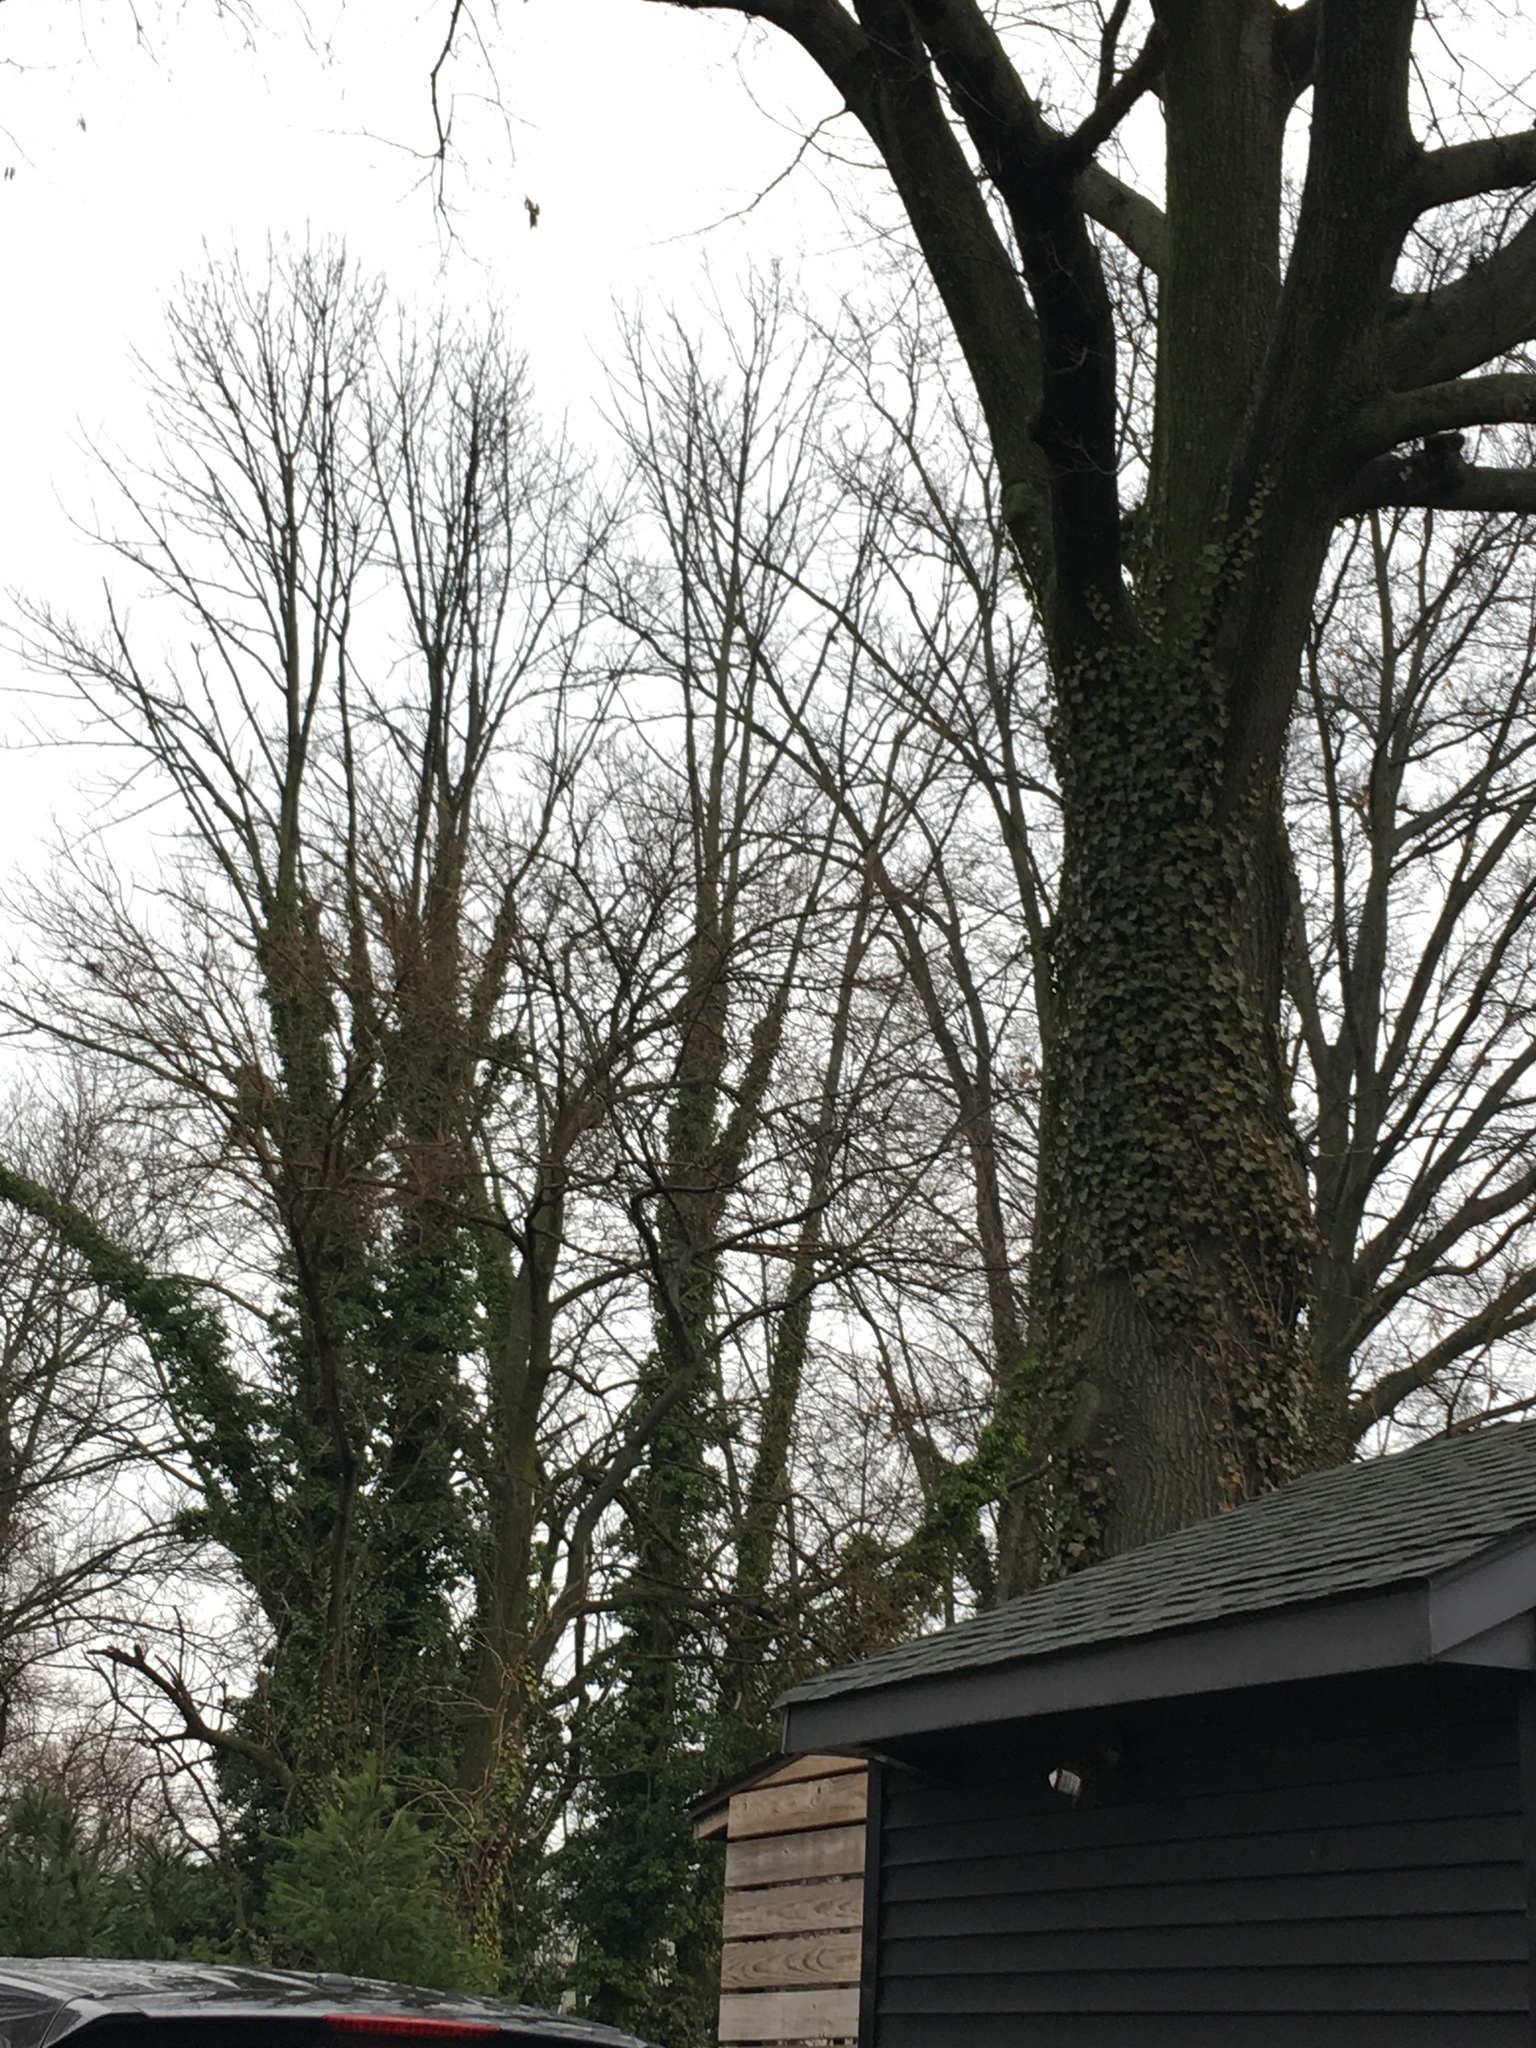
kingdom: Plantae
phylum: Tracheophyta
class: Magnoliopsida
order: Apiales
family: Araliaceae
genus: Hedera
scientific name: Hedera helix
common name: Ivy
